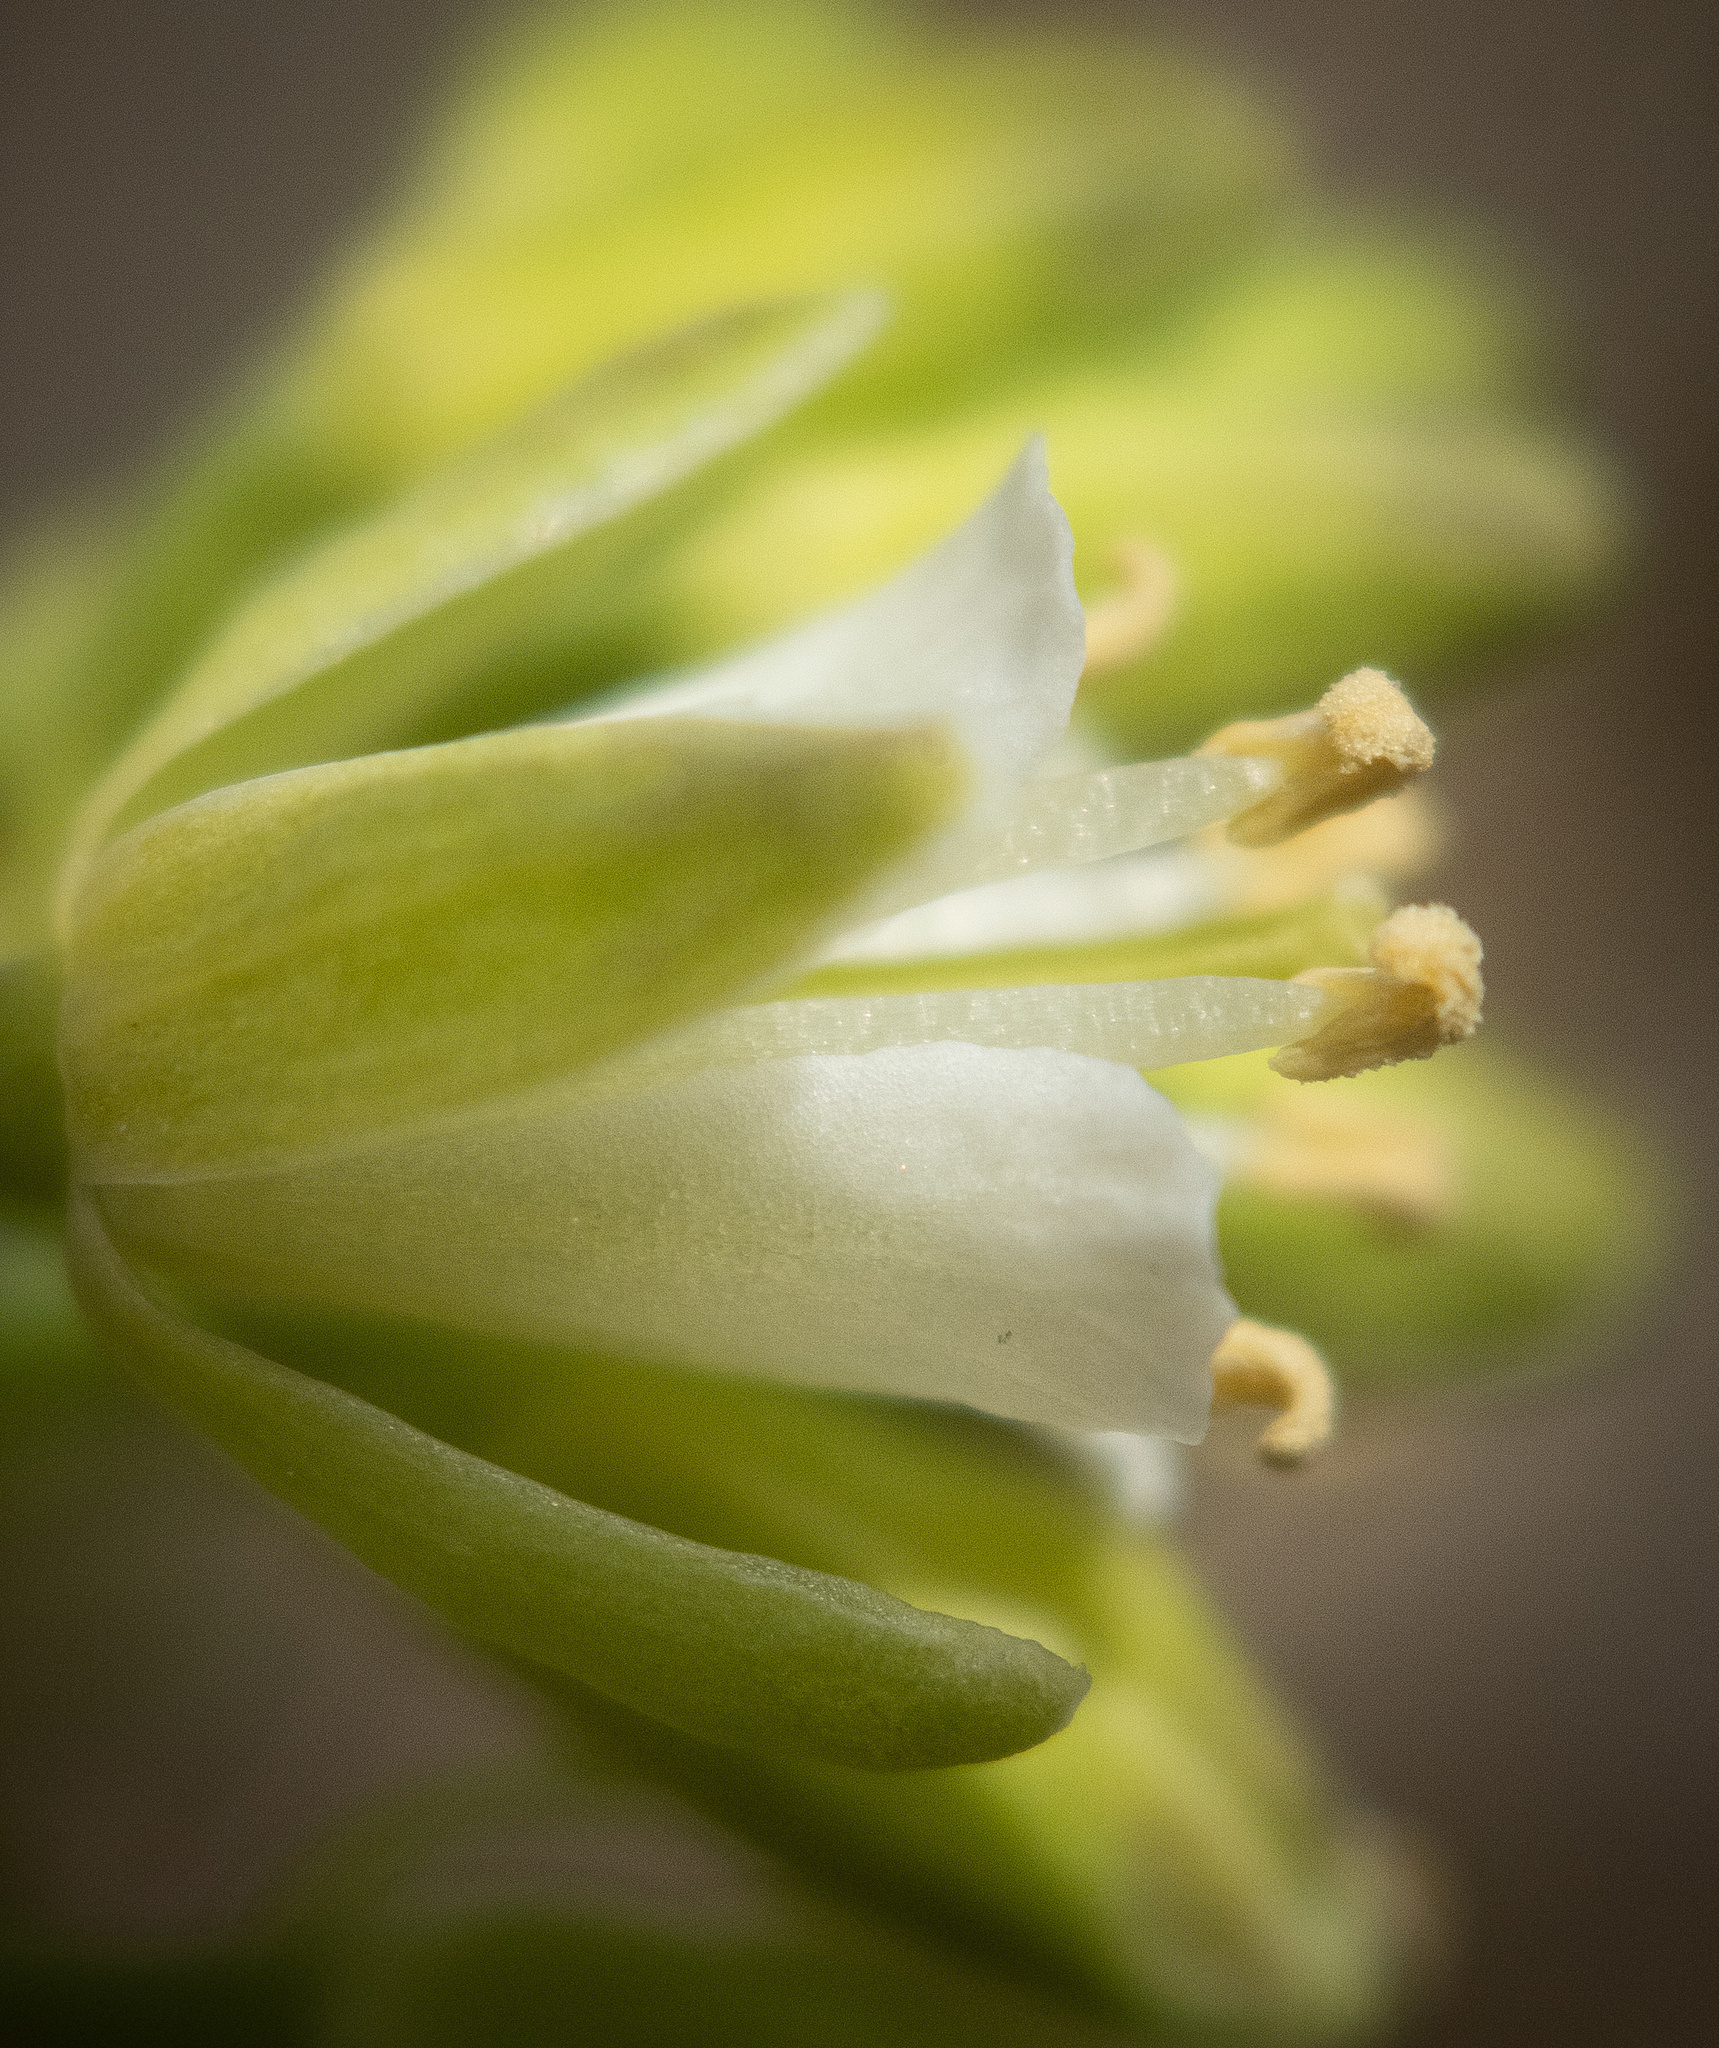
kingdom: Plantae
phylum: Tracheophyta
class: Magnoliopsida
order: Brassicales
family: Brassicaceae
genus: Borodinia
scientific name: Borodinia laevigata
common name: Smooth rockcress
